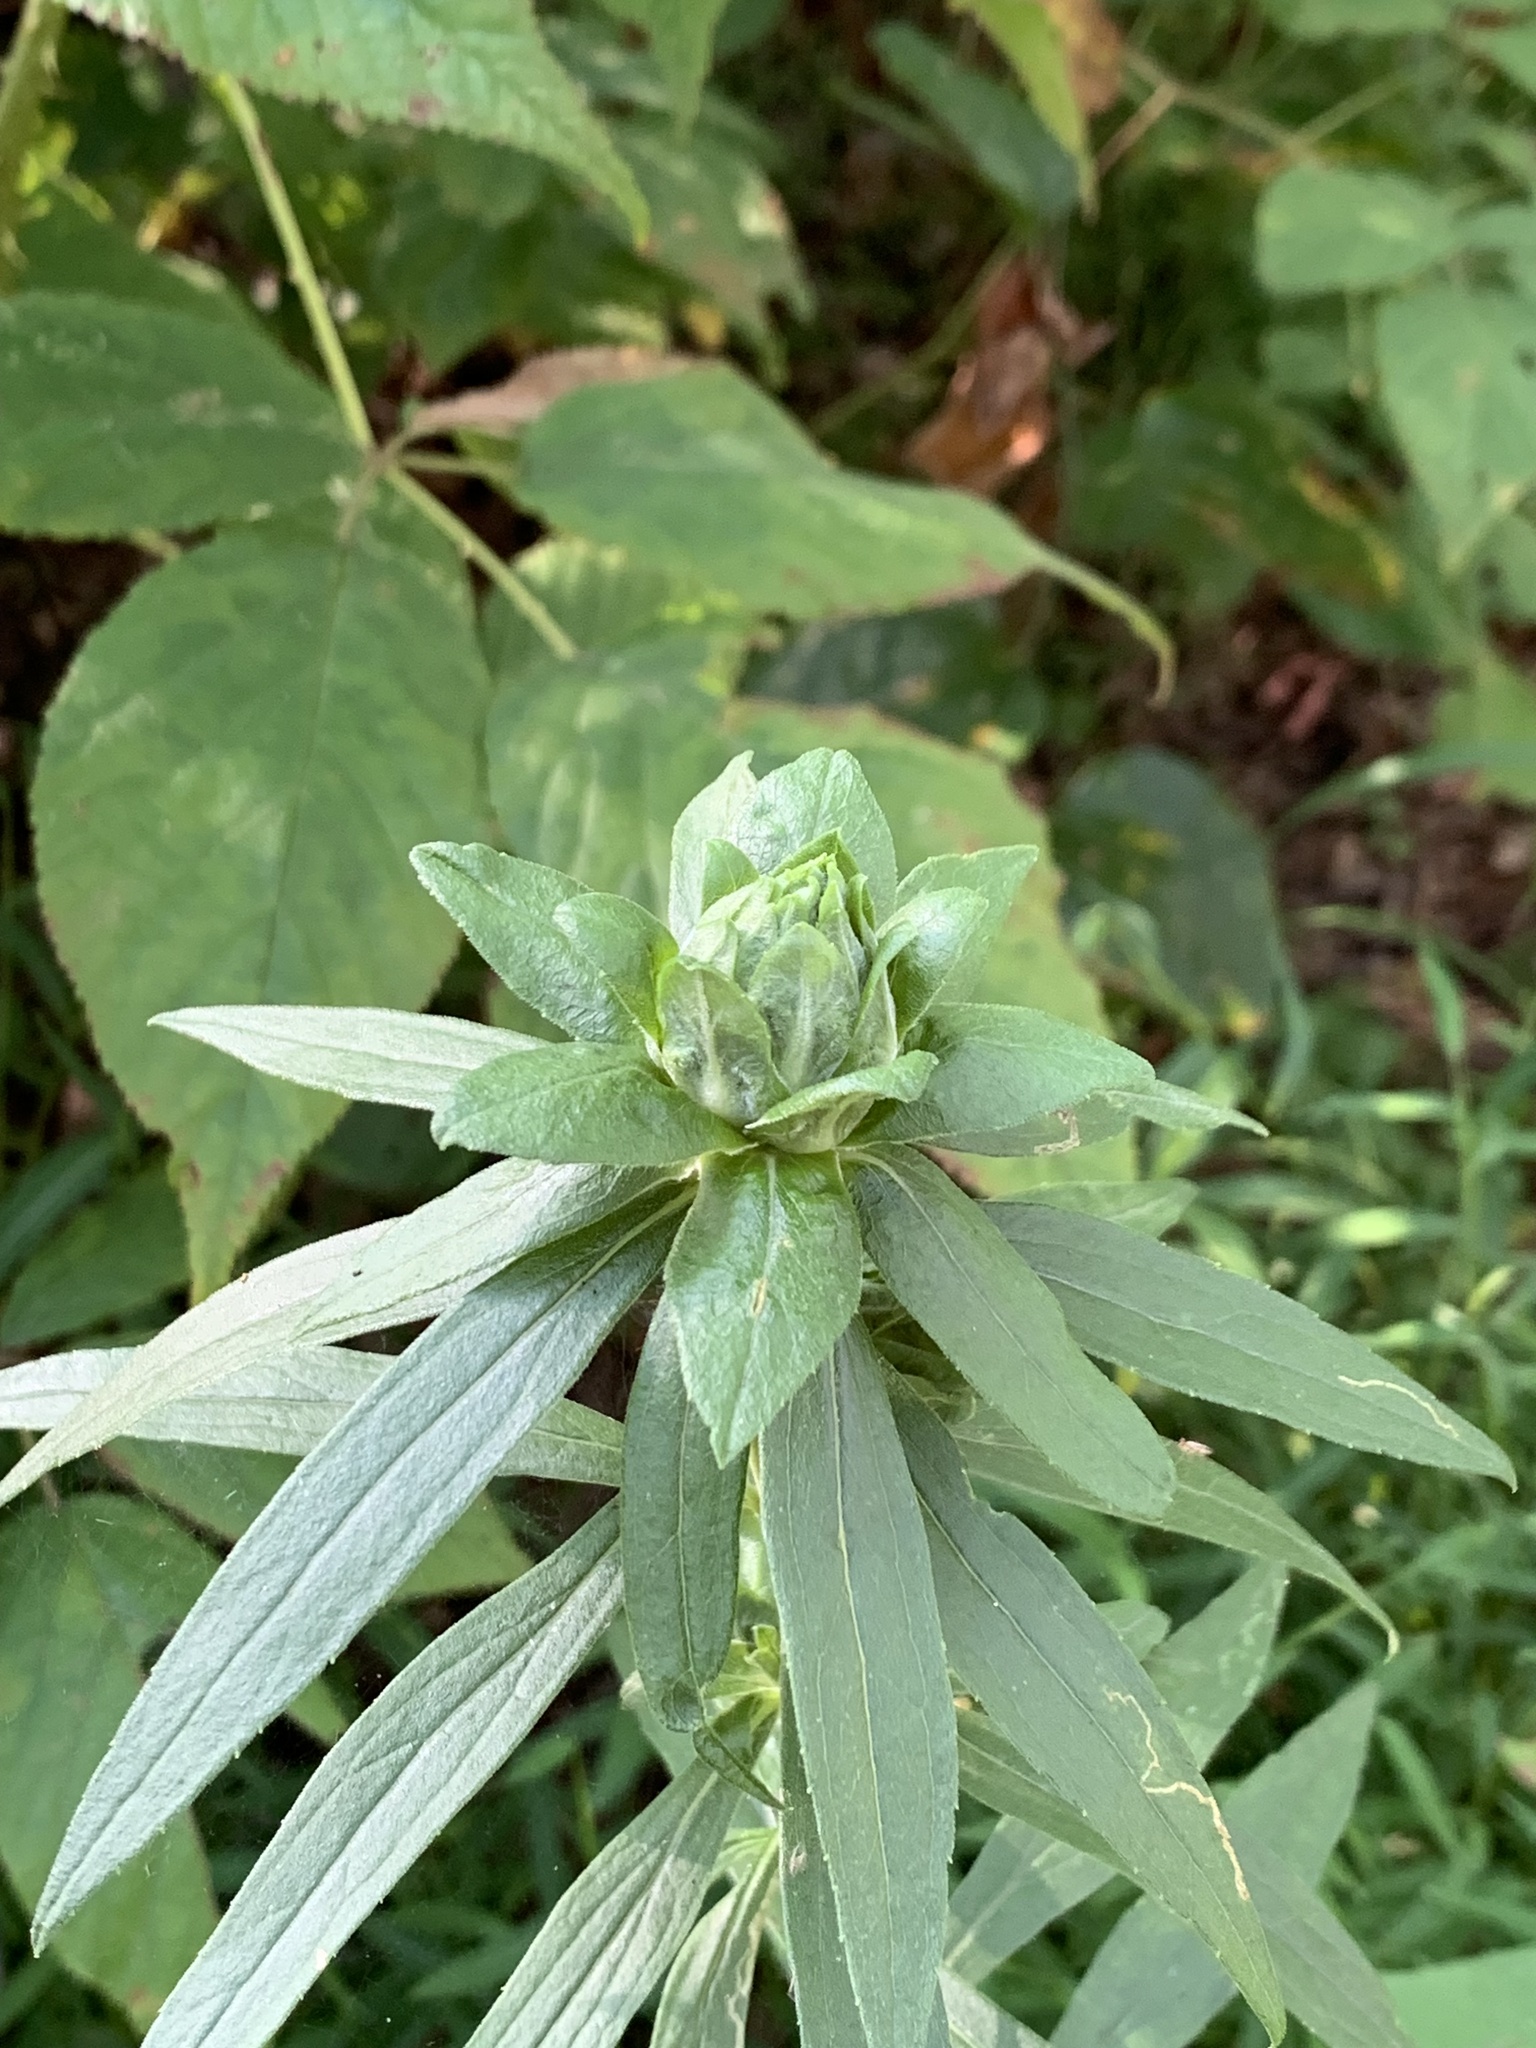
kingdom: Animalia
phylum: Arthropoda
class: Insecta
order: Diptera
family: Tephritidae
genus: Procecidochares
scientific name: Procecidochares atra
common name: Goldenrod brussels sprout gall fly
